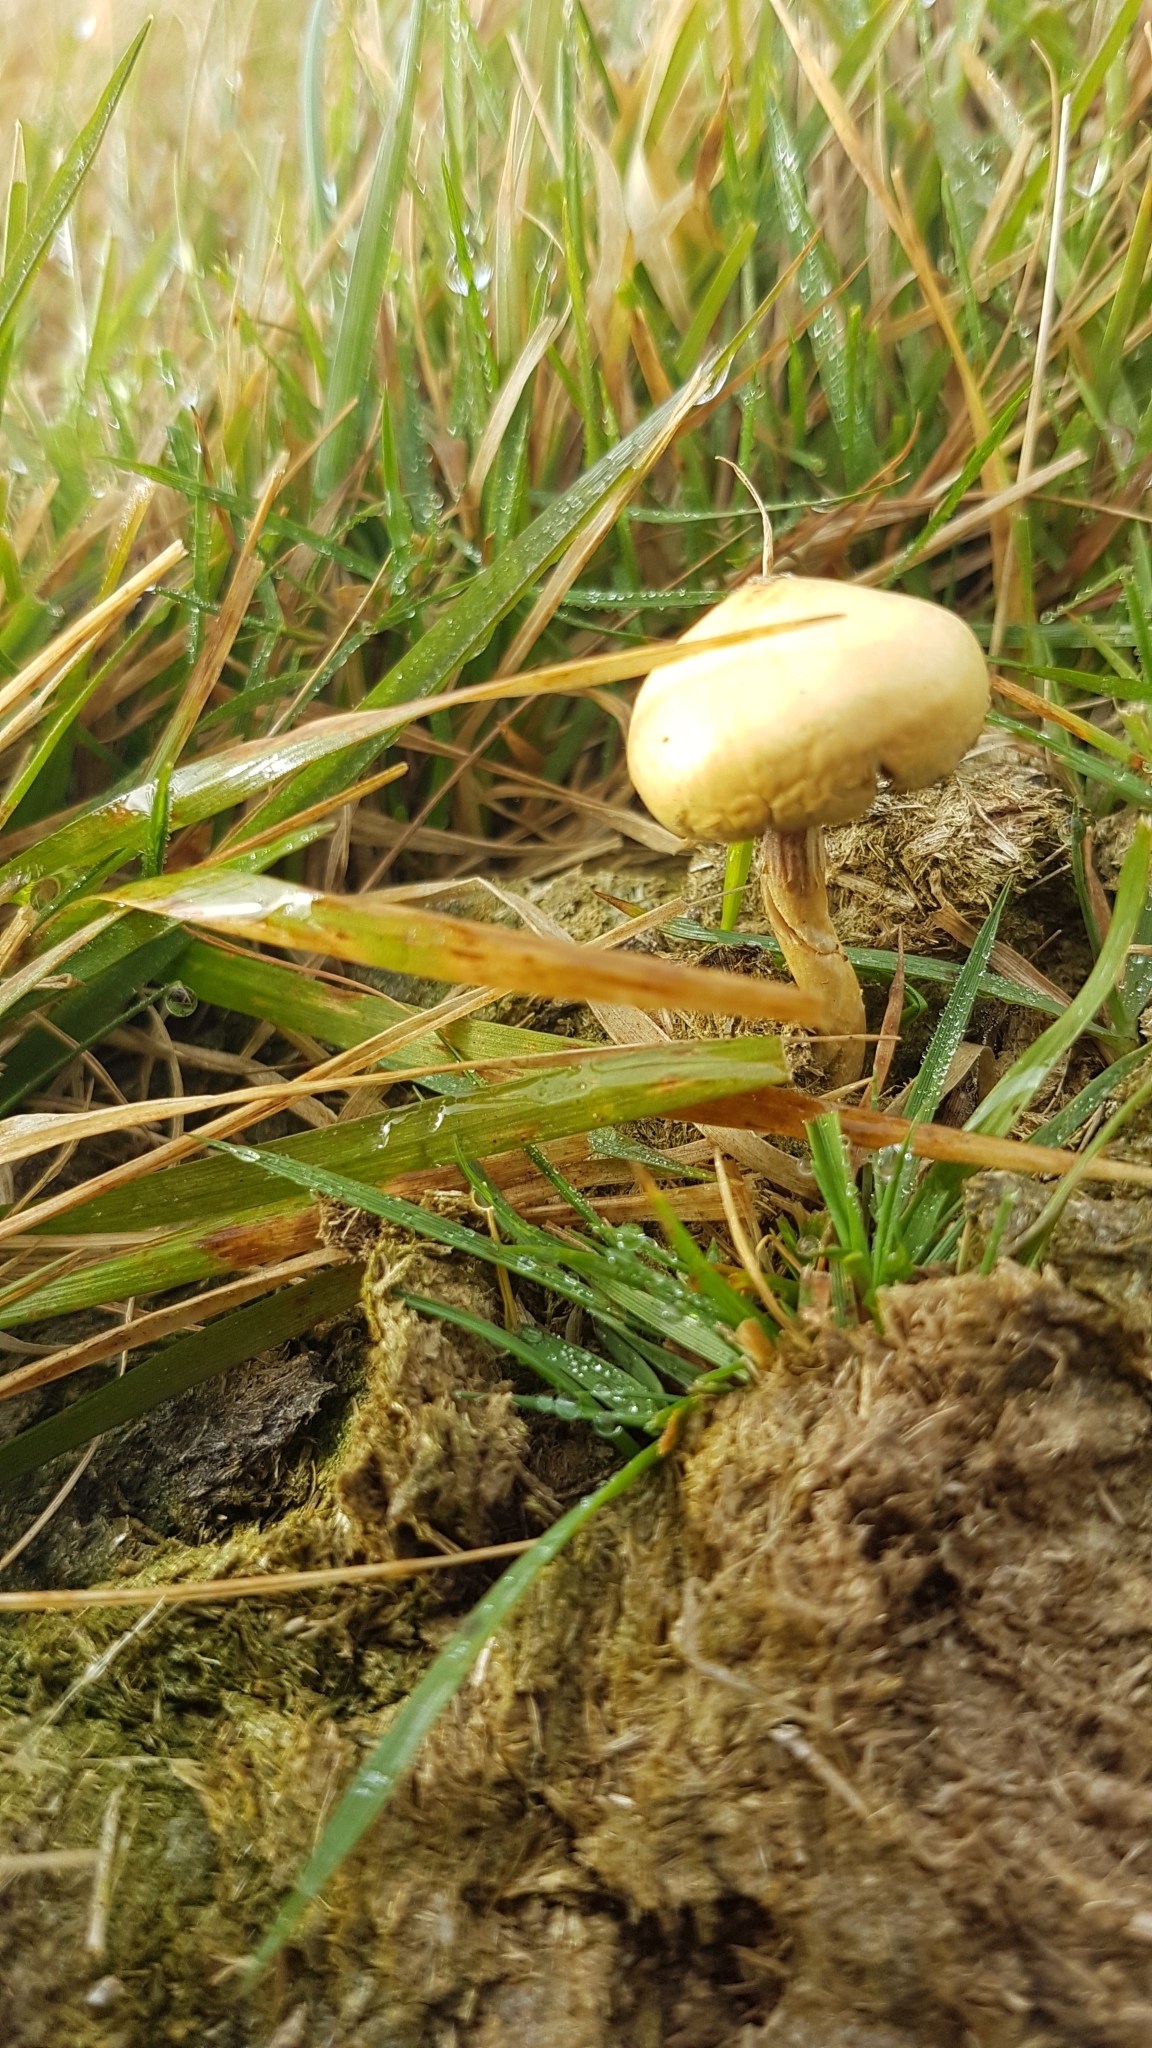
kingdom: Fungi
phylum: Basidiomycota
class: Agaricomycetes
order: Agaricales
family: Strophariaceae
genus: Protostropharia
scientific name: Protostropharia semiglobata
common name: Dung roundhead
